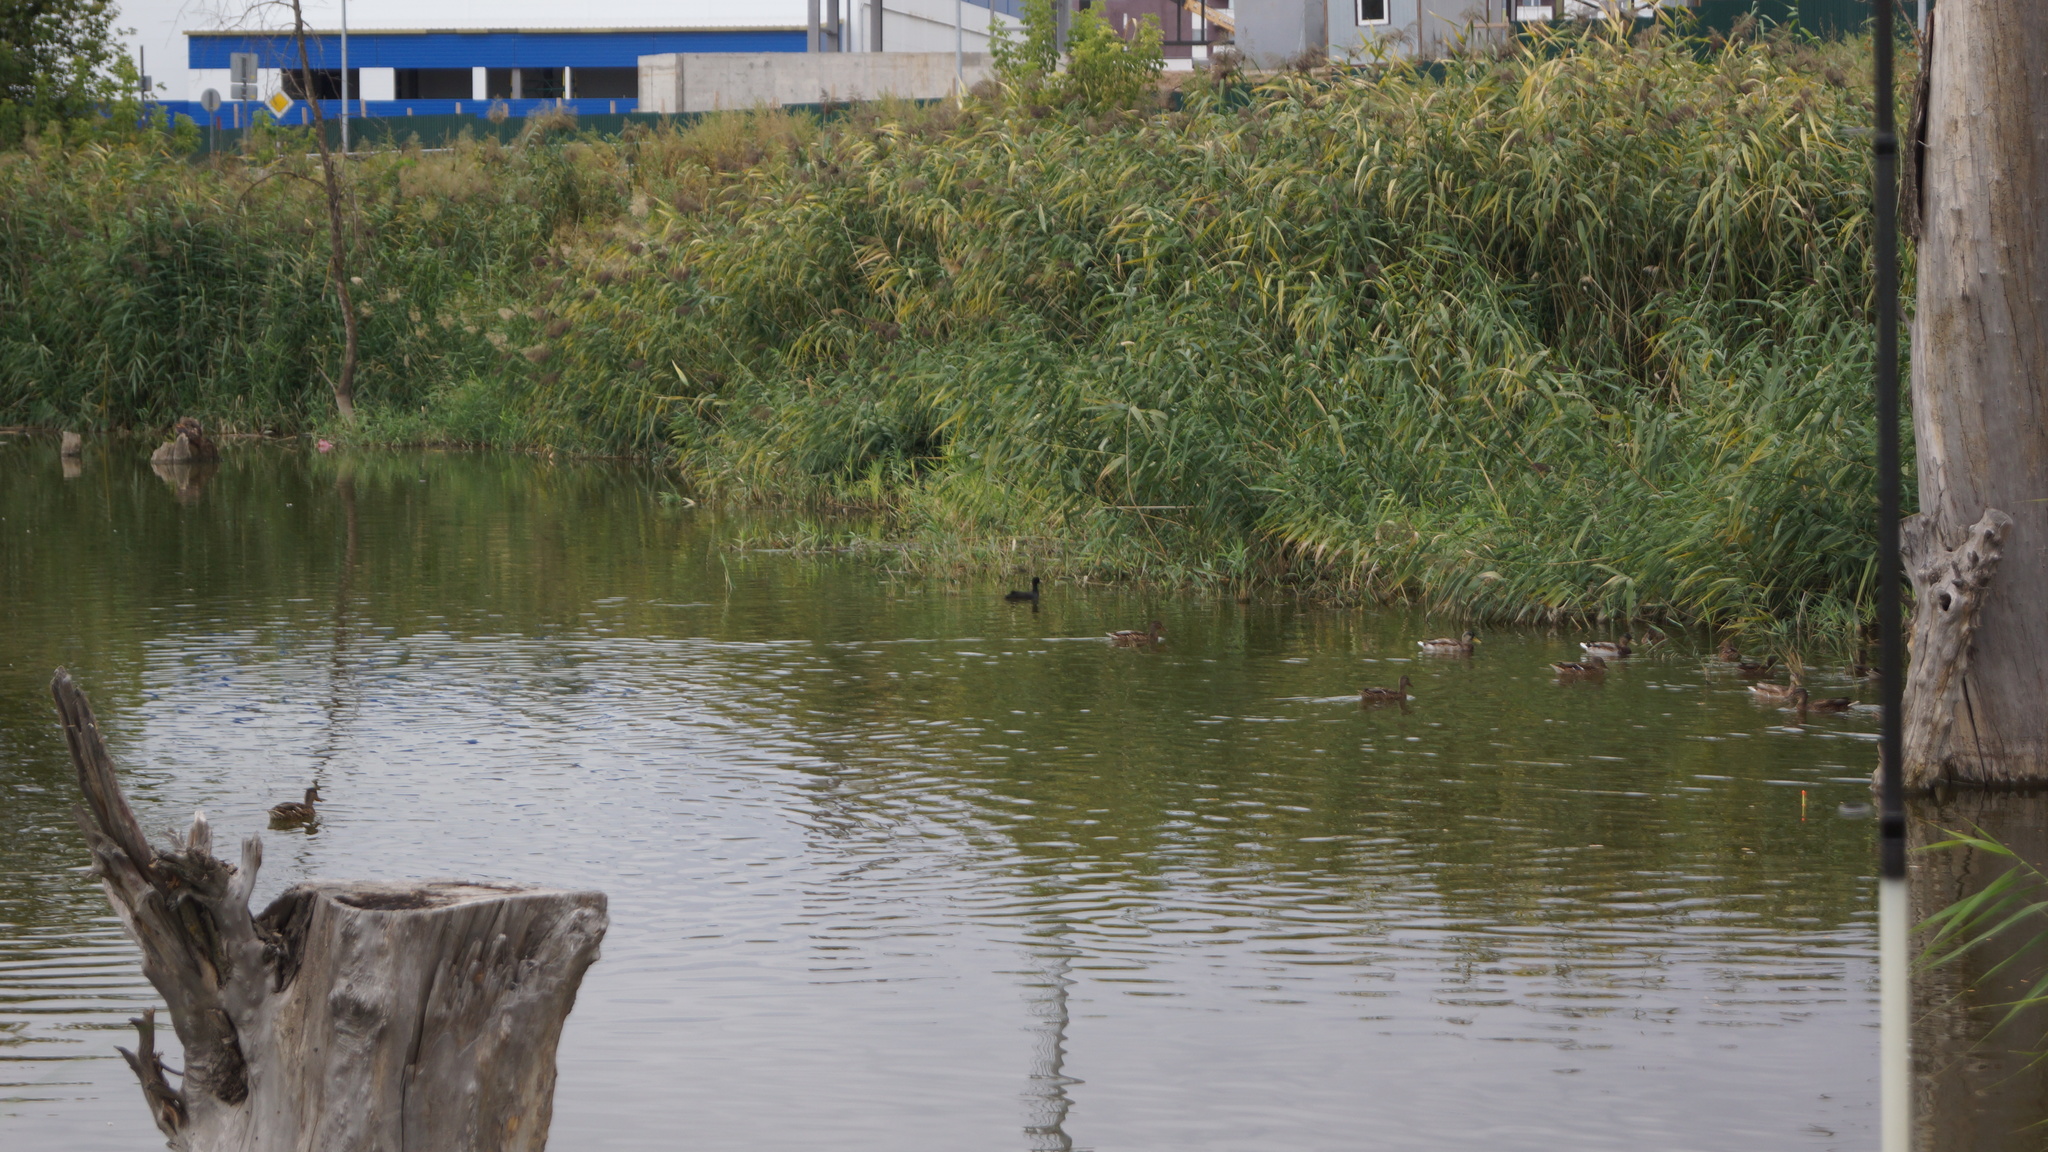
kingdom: Animalia
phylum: Chordata
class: Aves
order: Gruiformes
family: Rallidae
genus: Fulica
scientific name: Fulica atra
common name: Eurasian coot
